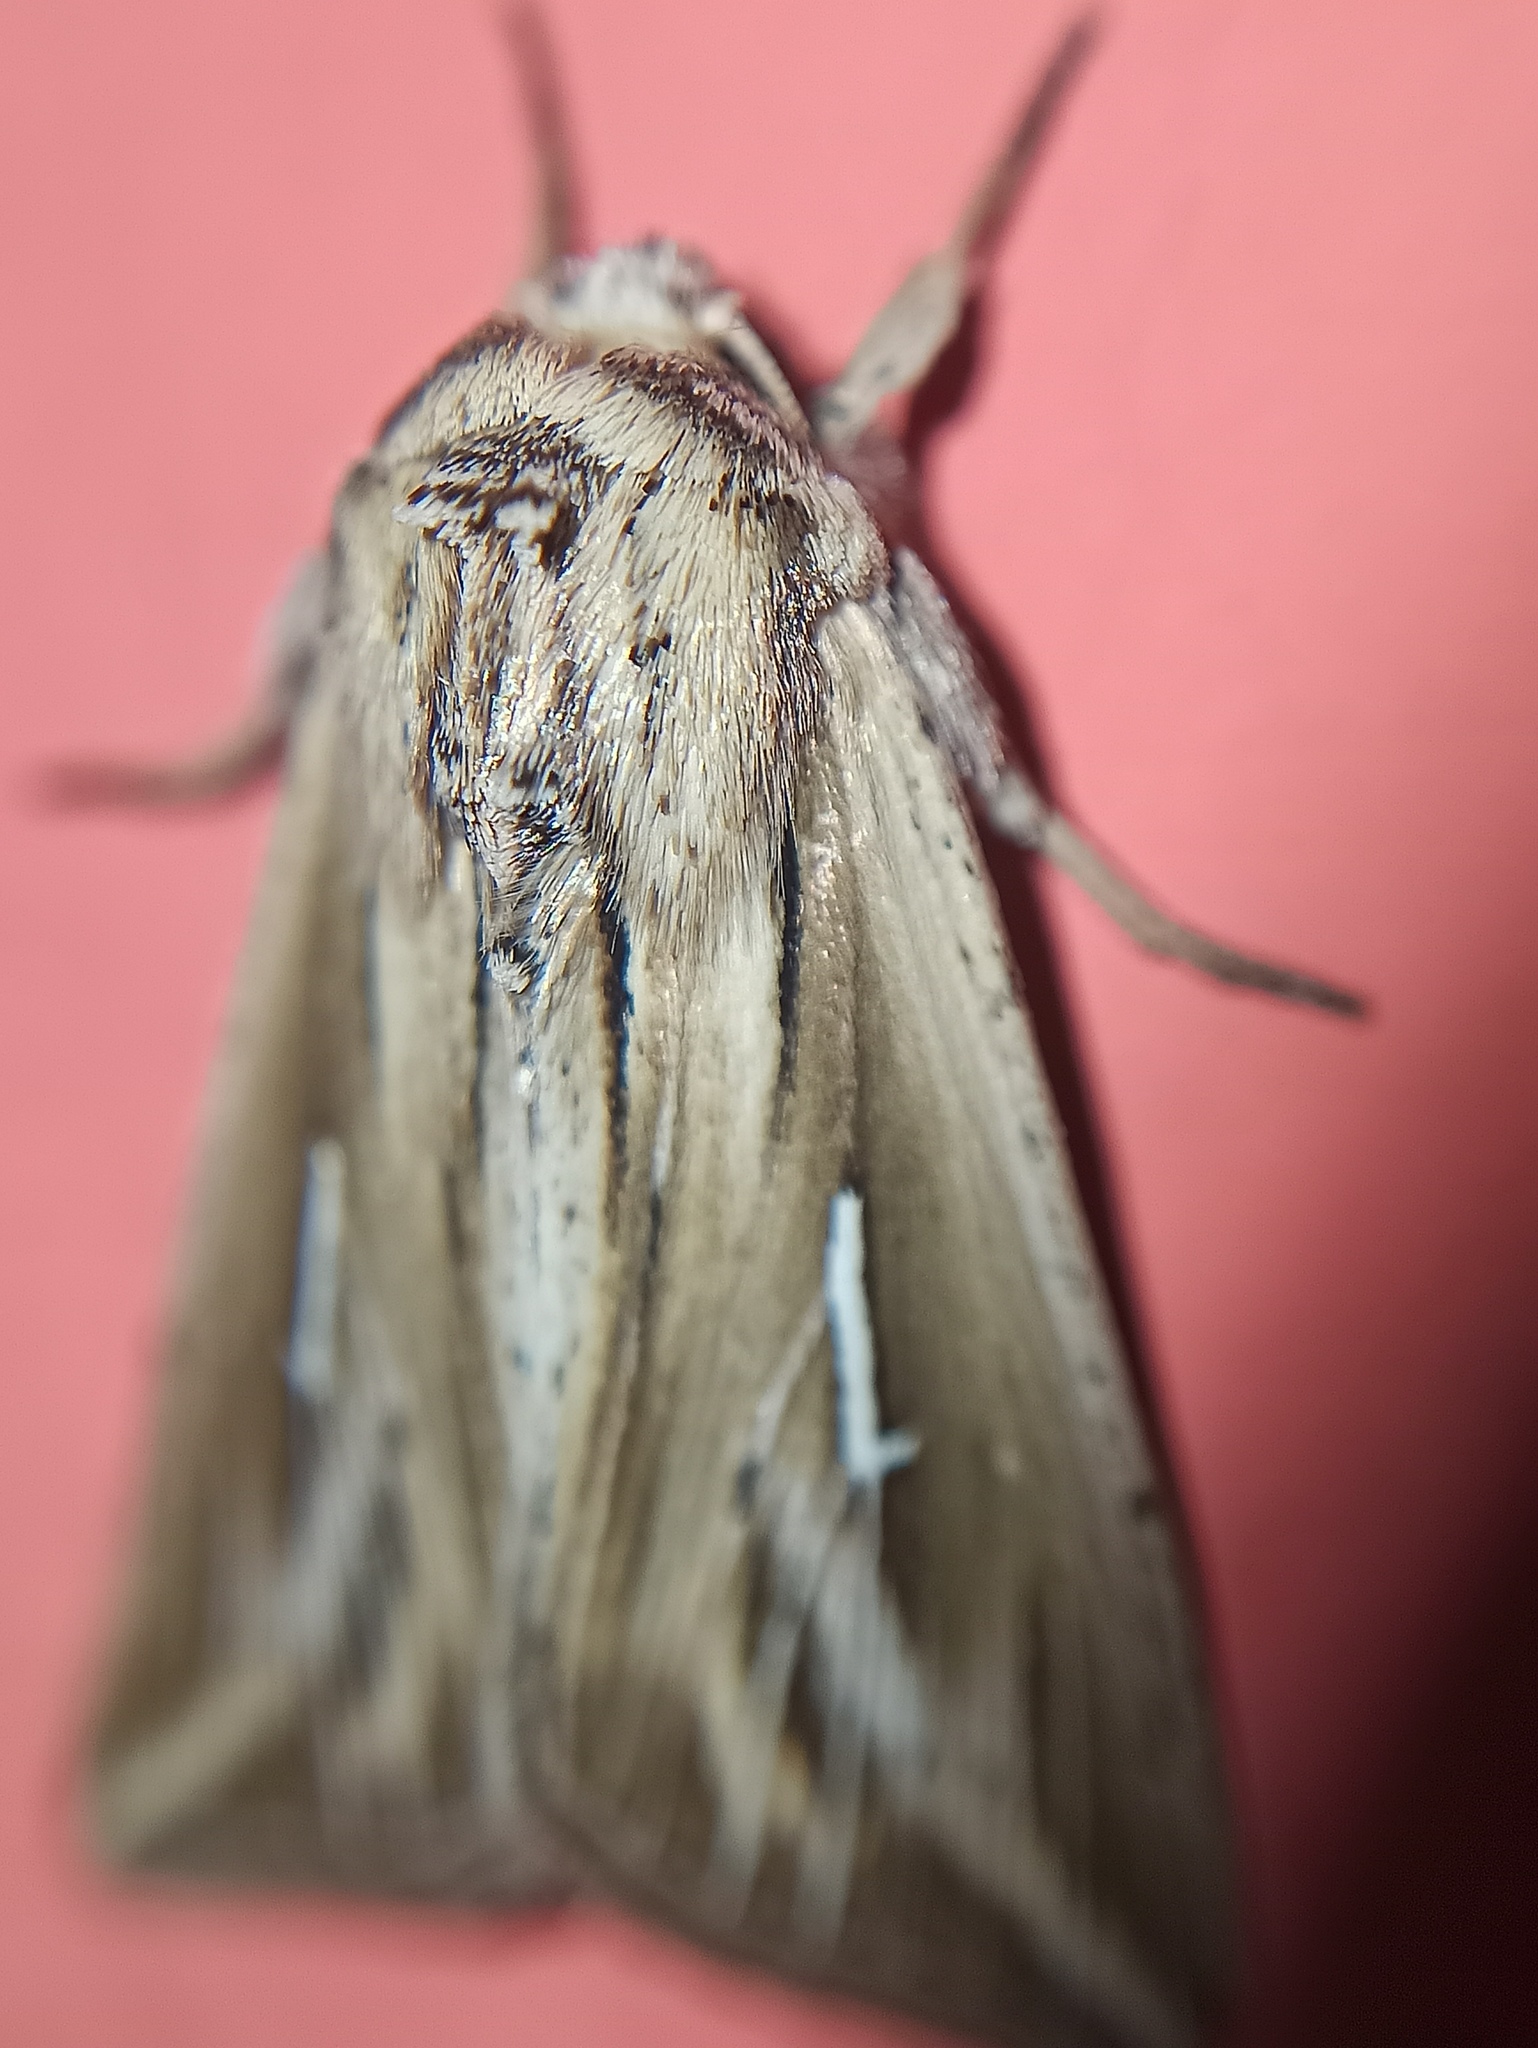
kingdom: Animalia
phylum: Arthropoda
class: Insecta
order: Lepidoptera
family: Noctuidae
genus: Mythimna
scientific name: Mythimna l-album
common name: L-album wainscot
